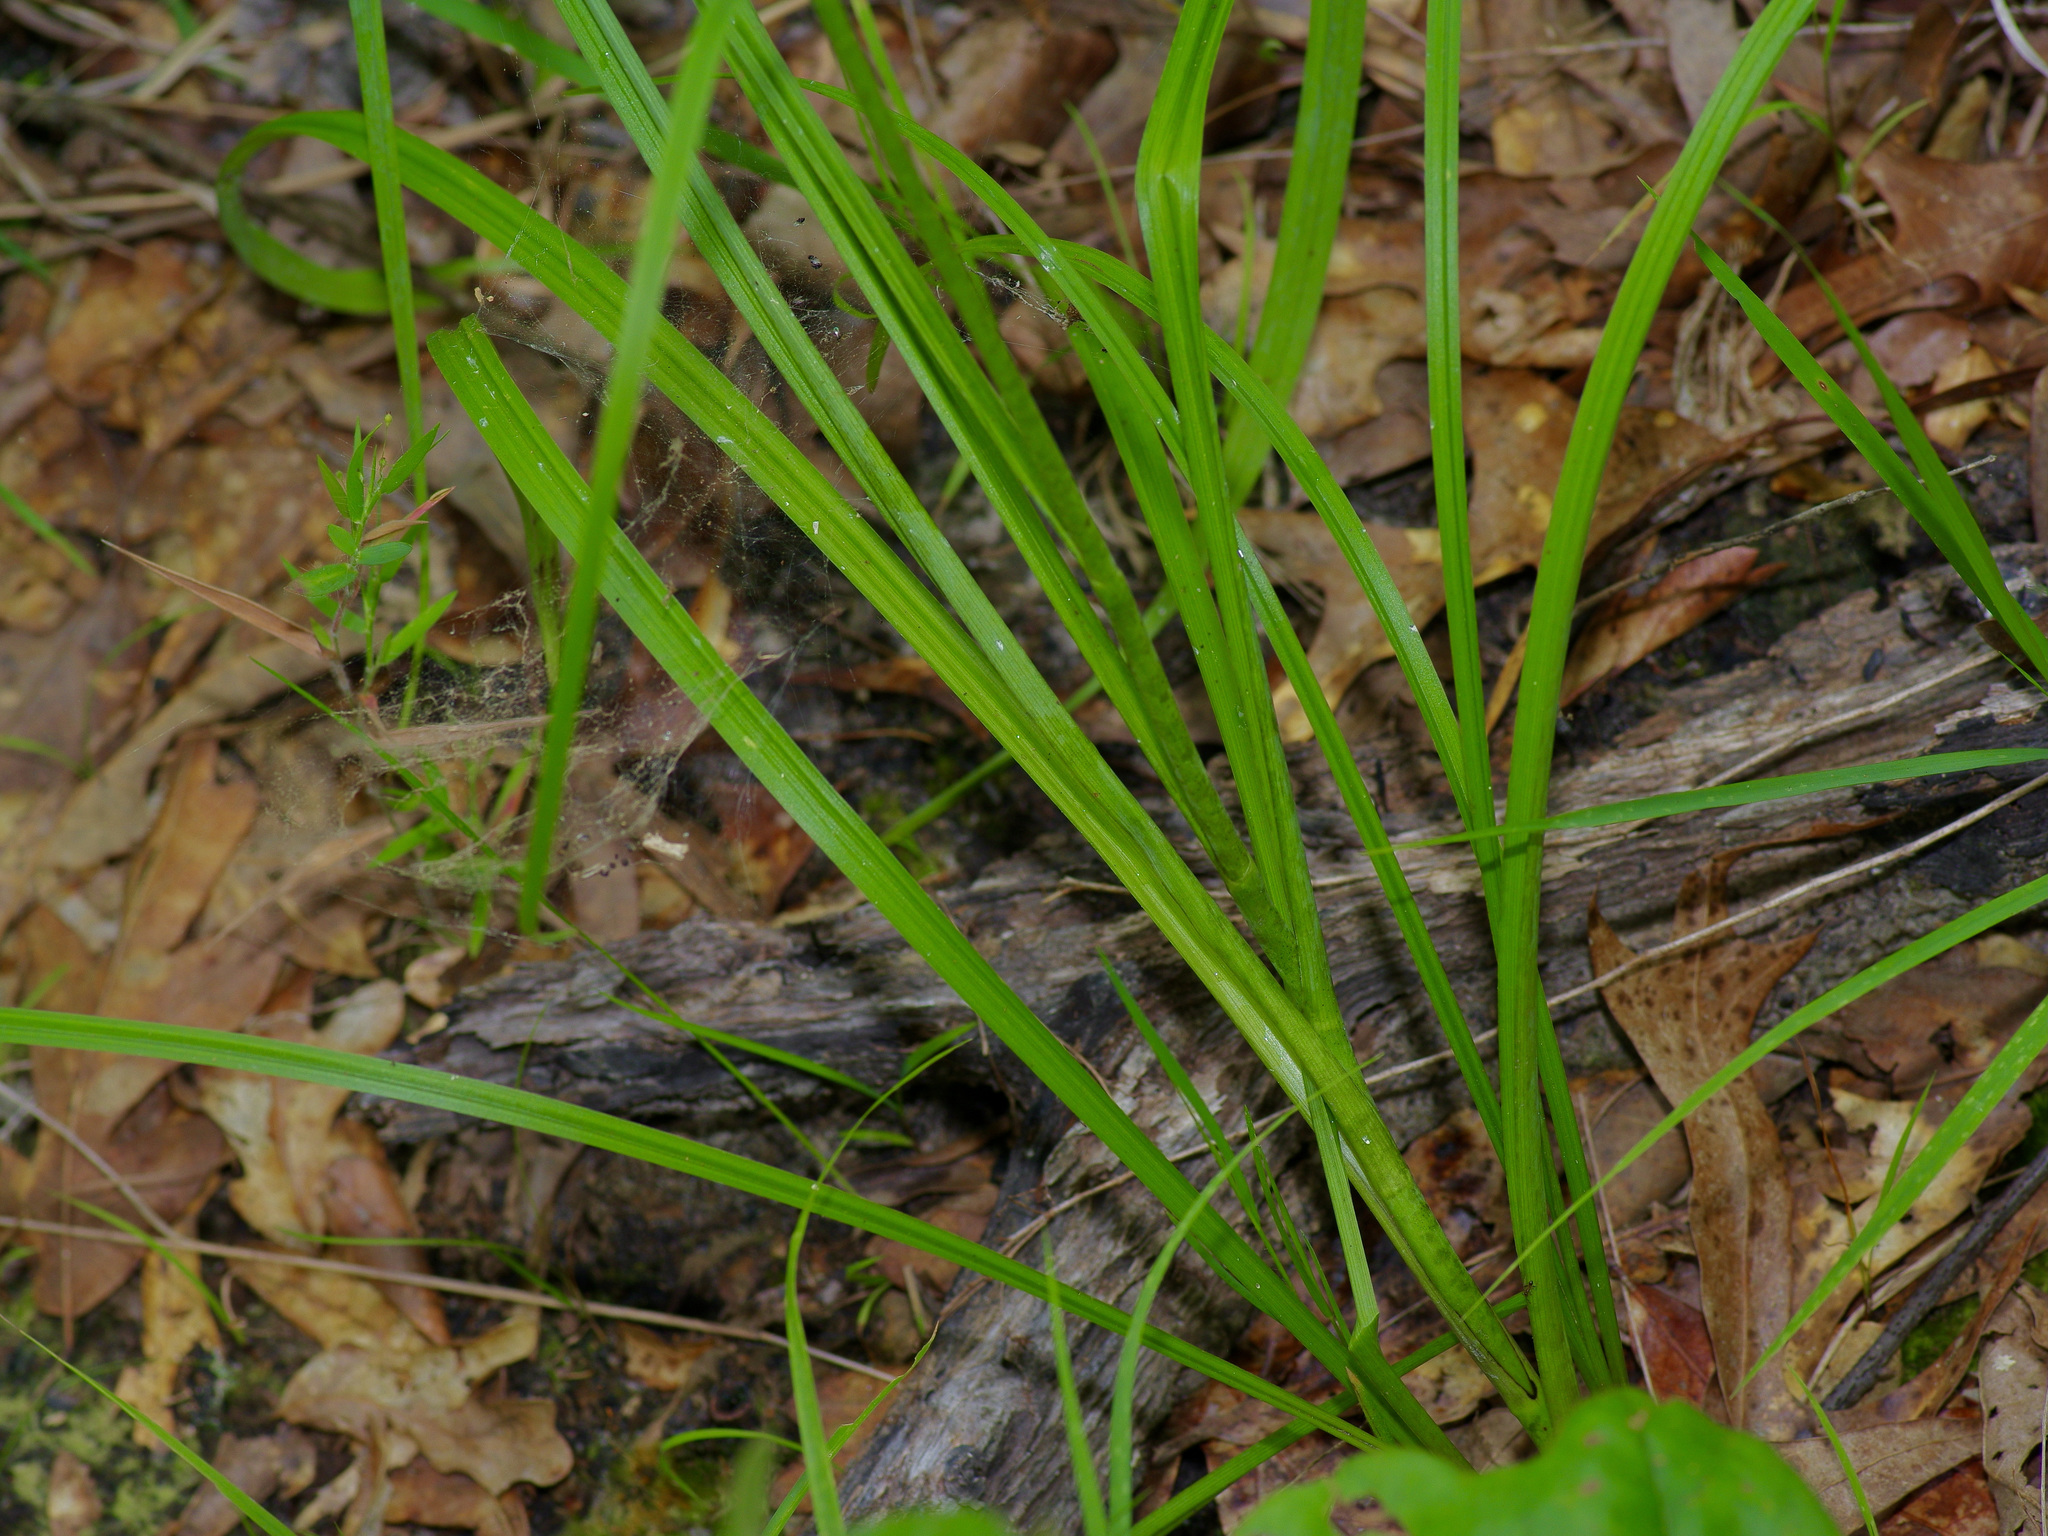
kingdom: Plantae
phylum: Tracheophyta
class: Liliopsida
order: Liliales
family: Melanthiaceae
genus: Stenanthium
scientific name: Stenanthium gramineum
